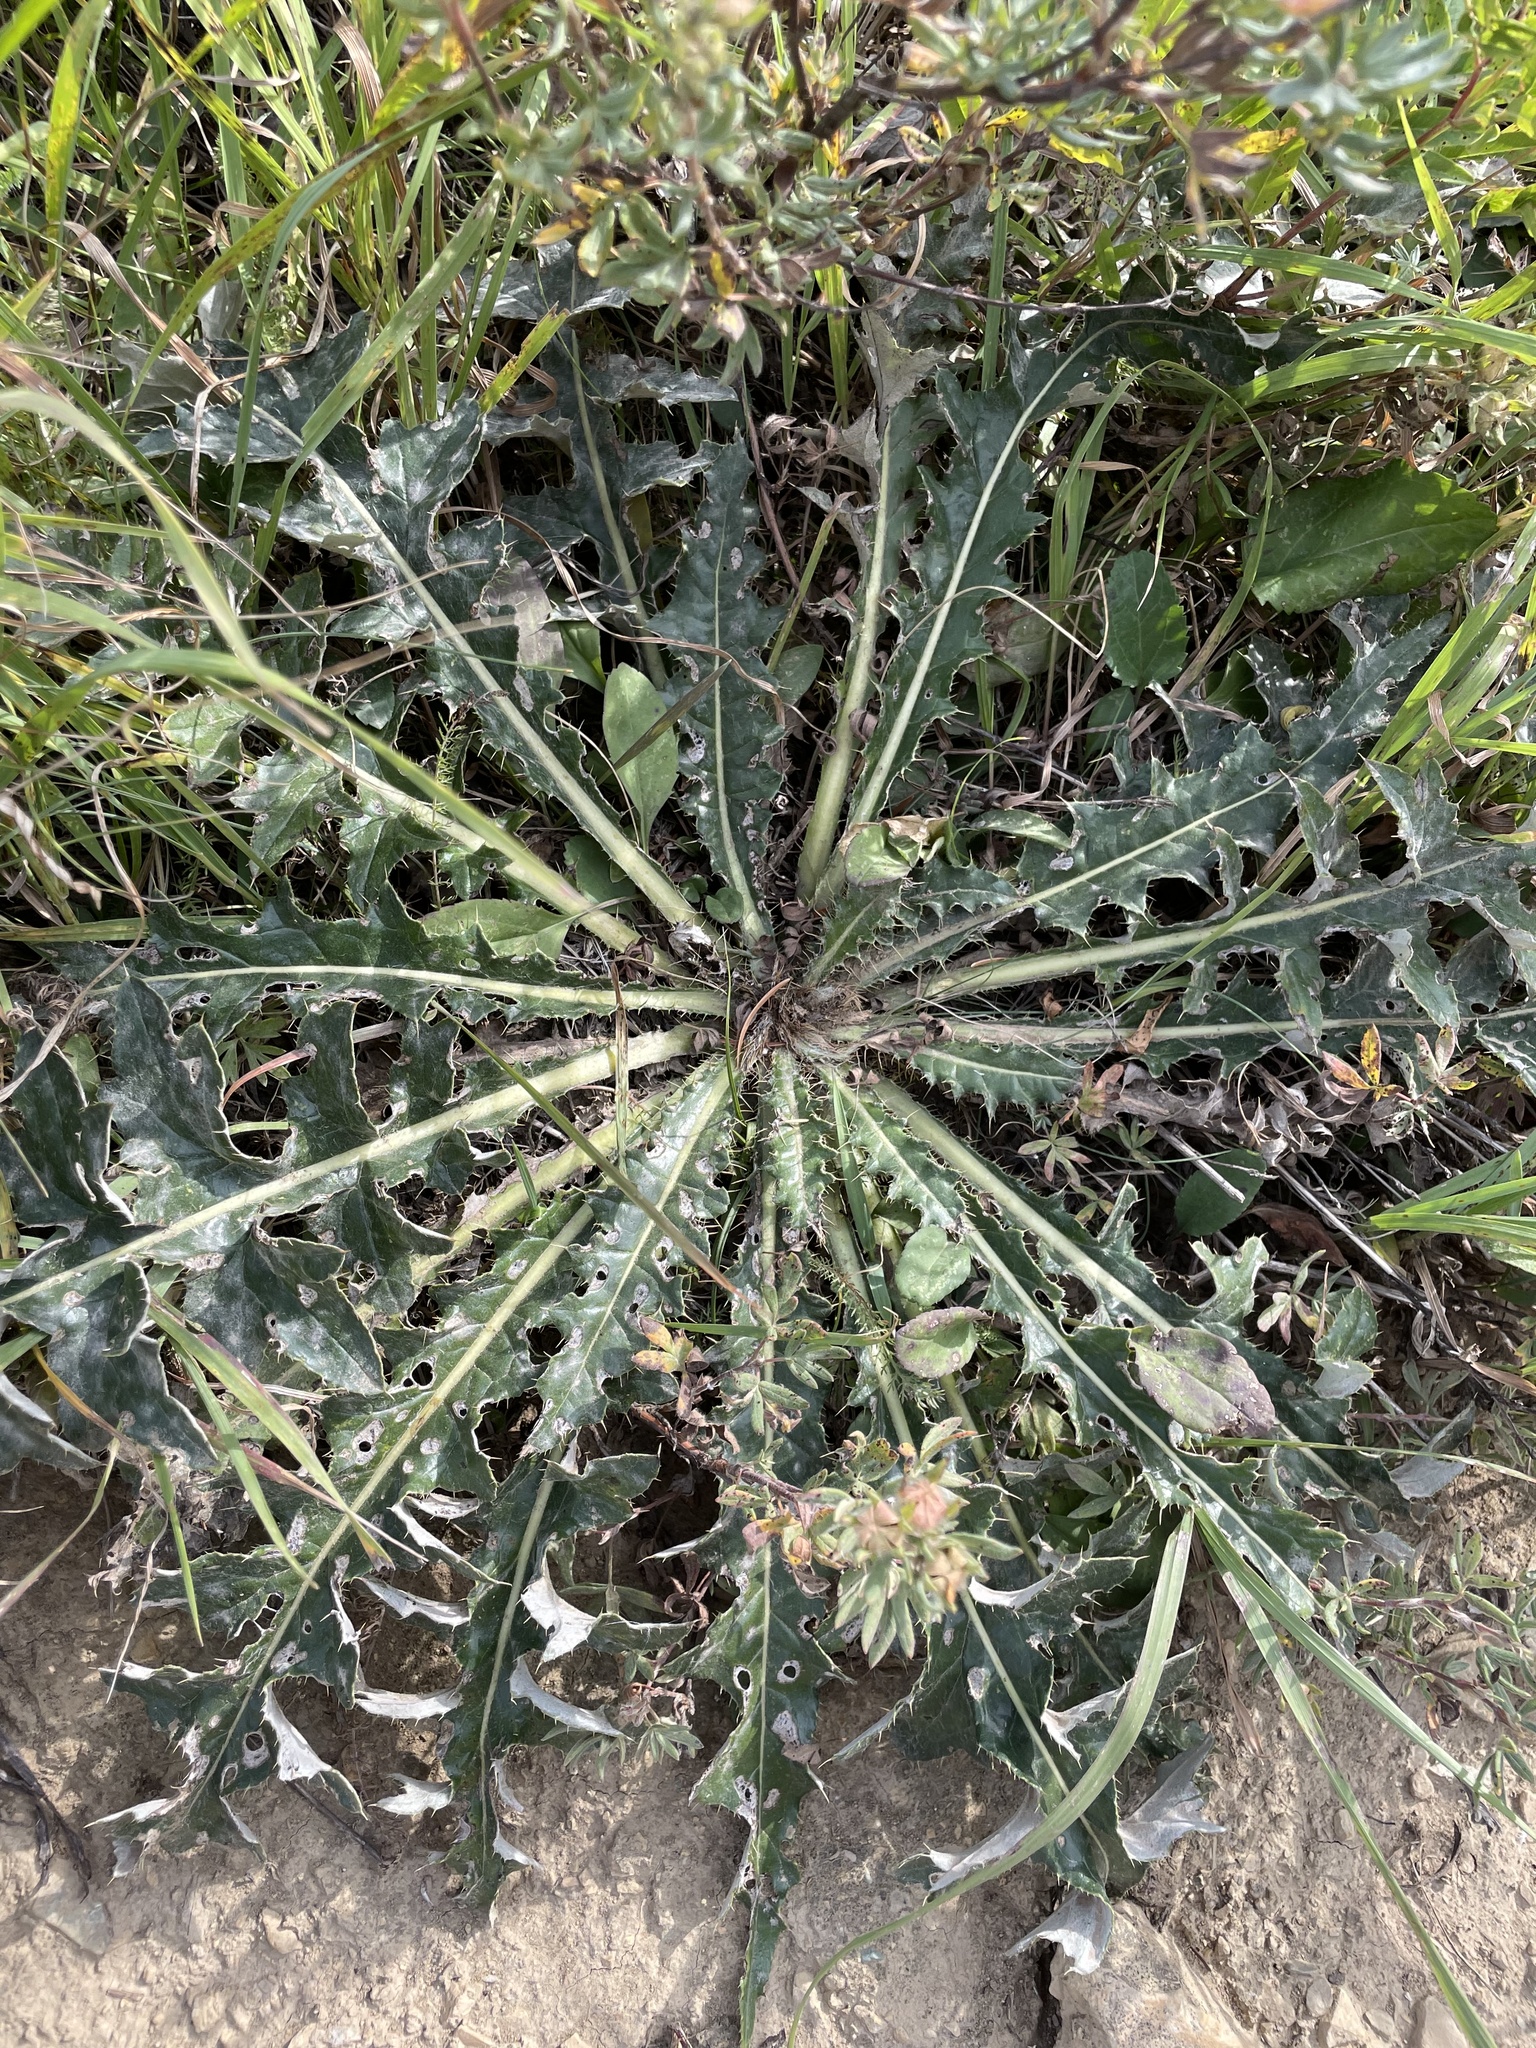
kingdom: Plantae
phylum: Tracheophyta
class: Magnoliopsida
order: Asterales
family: Asteraceae
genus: Cirsium
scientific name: Cirsium hookerianum
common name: Hooker's thistle
